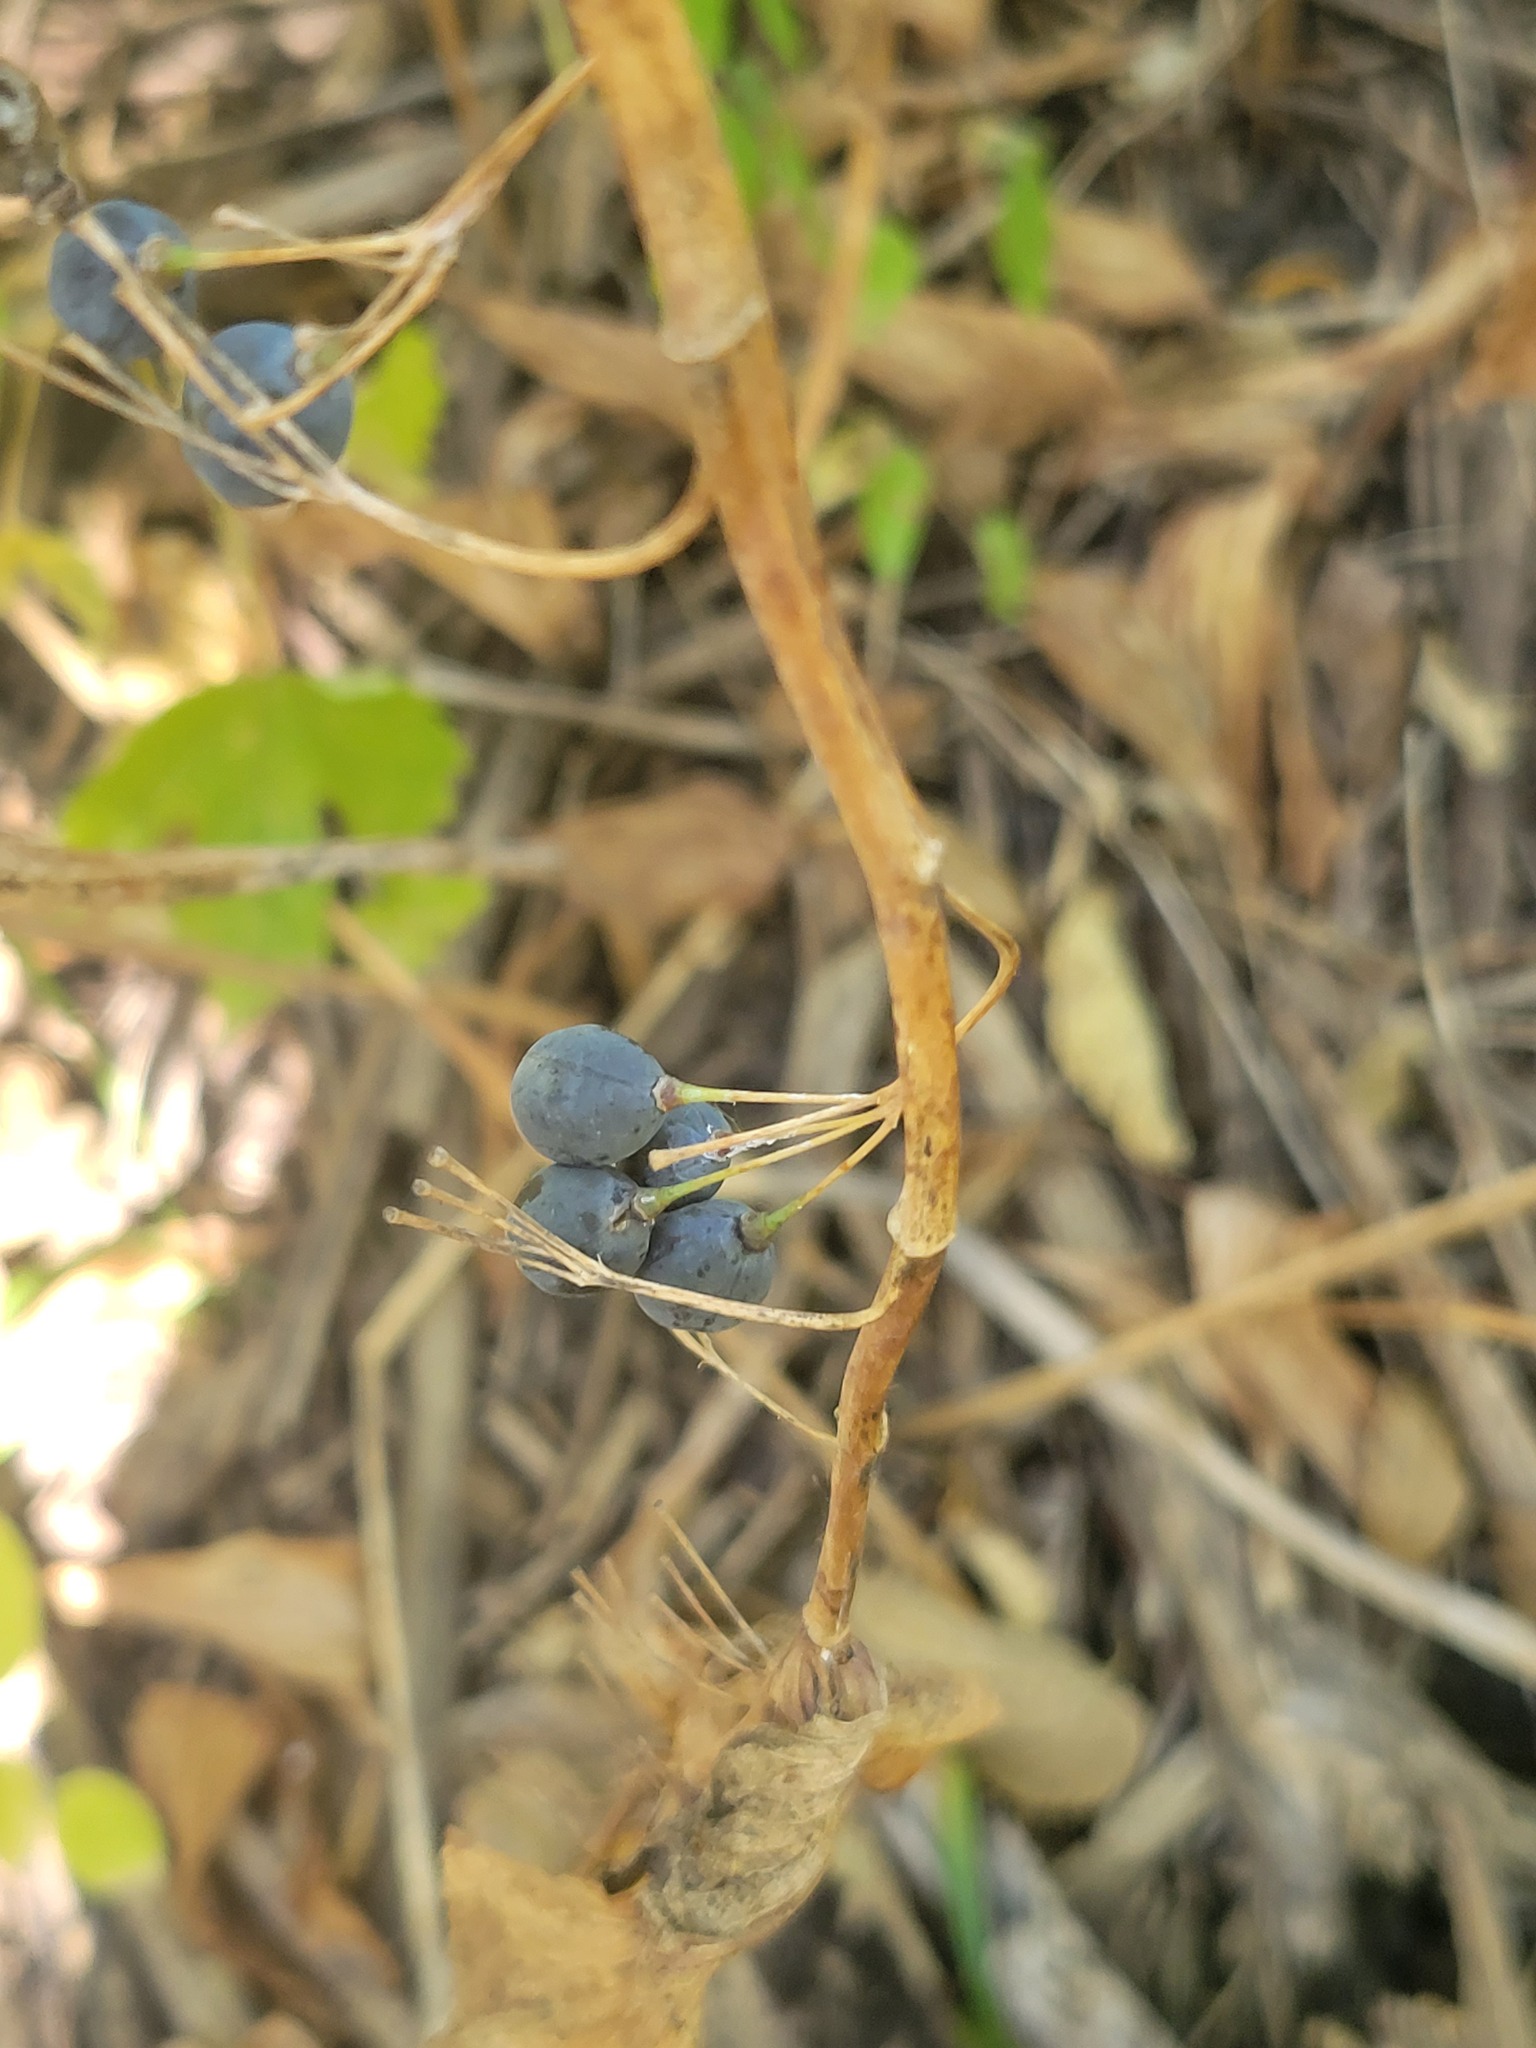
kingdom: Plantae
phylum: Tracheophyta
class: Liliopsida
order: Asparagales
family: Asparagaceae
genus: Polygonatum
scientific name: Polygonatum biflorum
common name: American solomon's-seal
